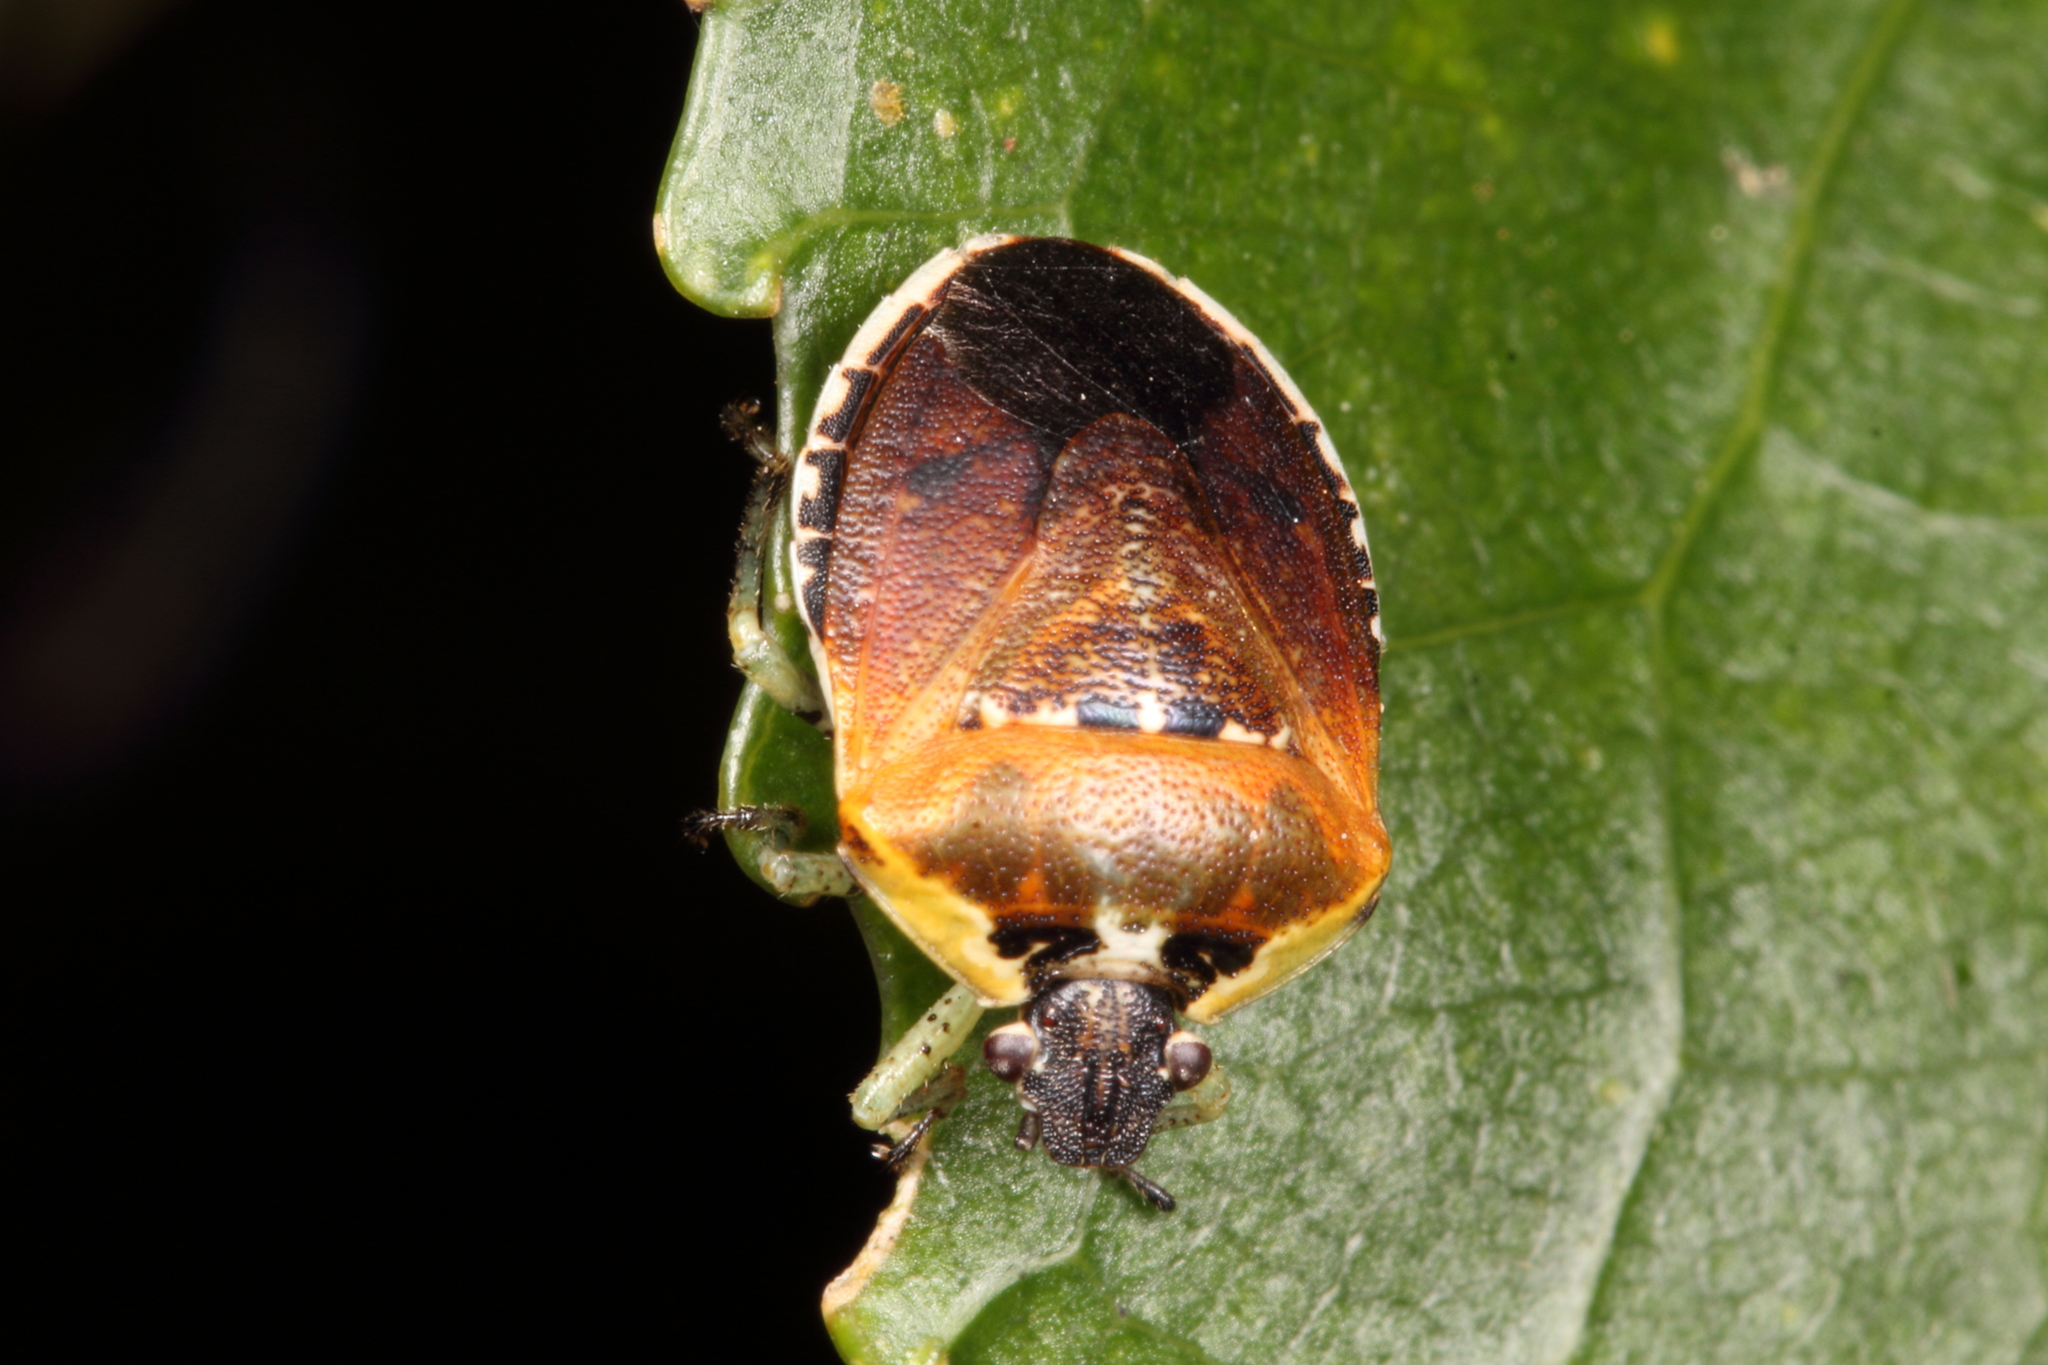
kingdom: Animalia
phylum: Arthropoda
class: Insecta
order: Hemiptera
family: Pentatomidae
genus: Monteithiella
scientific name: Monteithiella
